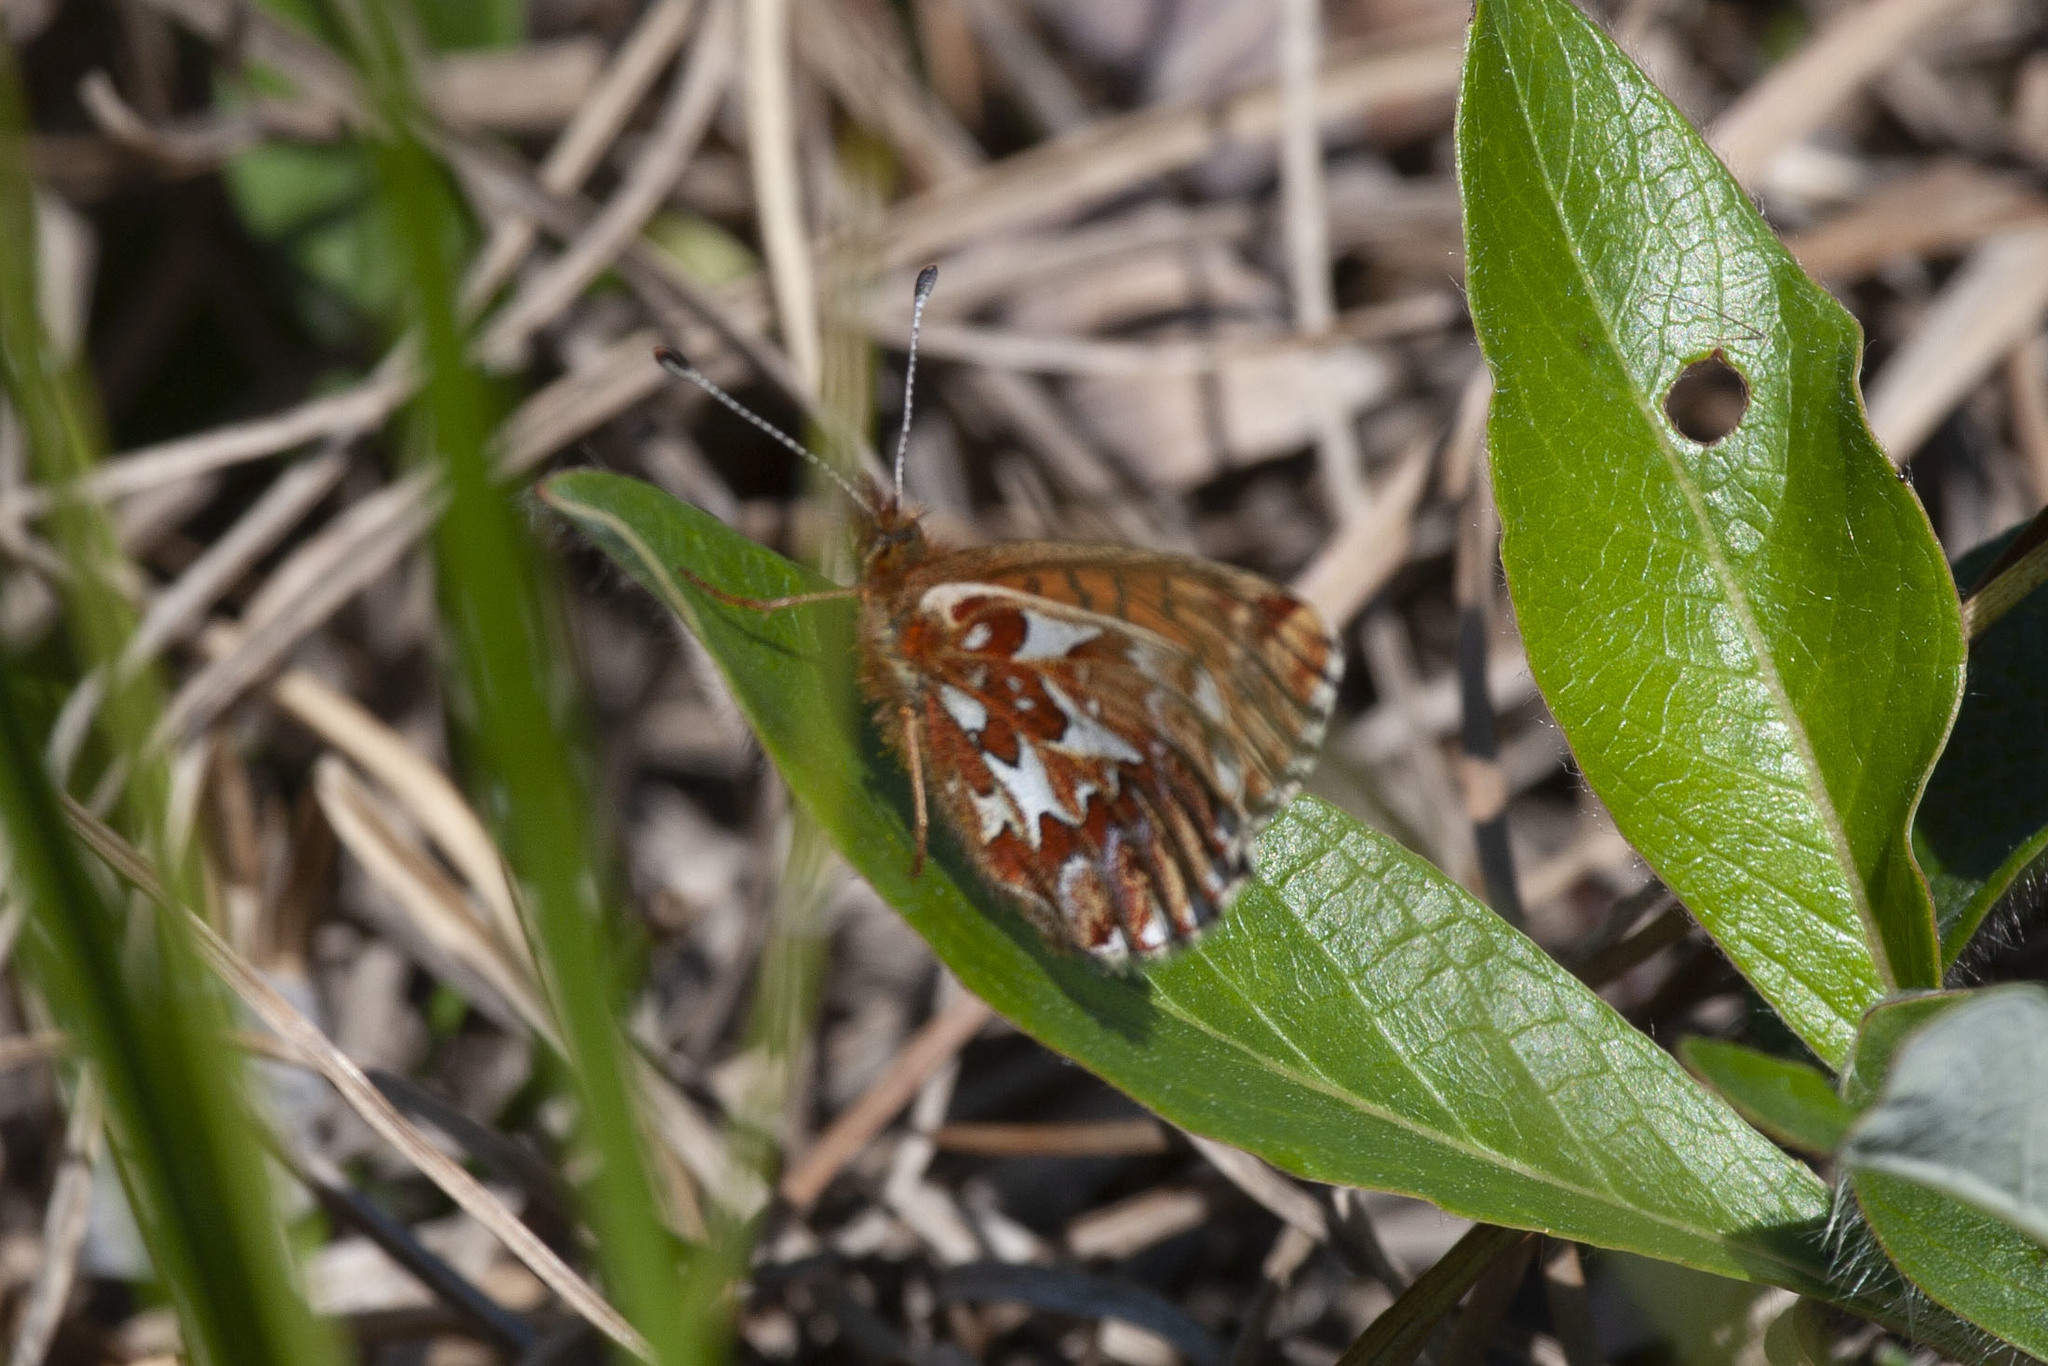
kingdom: Animalia
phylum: Arthropoda
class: Insecta
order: Lepidoptera
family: Nymphalidae
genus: Boloria
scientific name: Boloria chariclea
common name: Arctic fritillary
